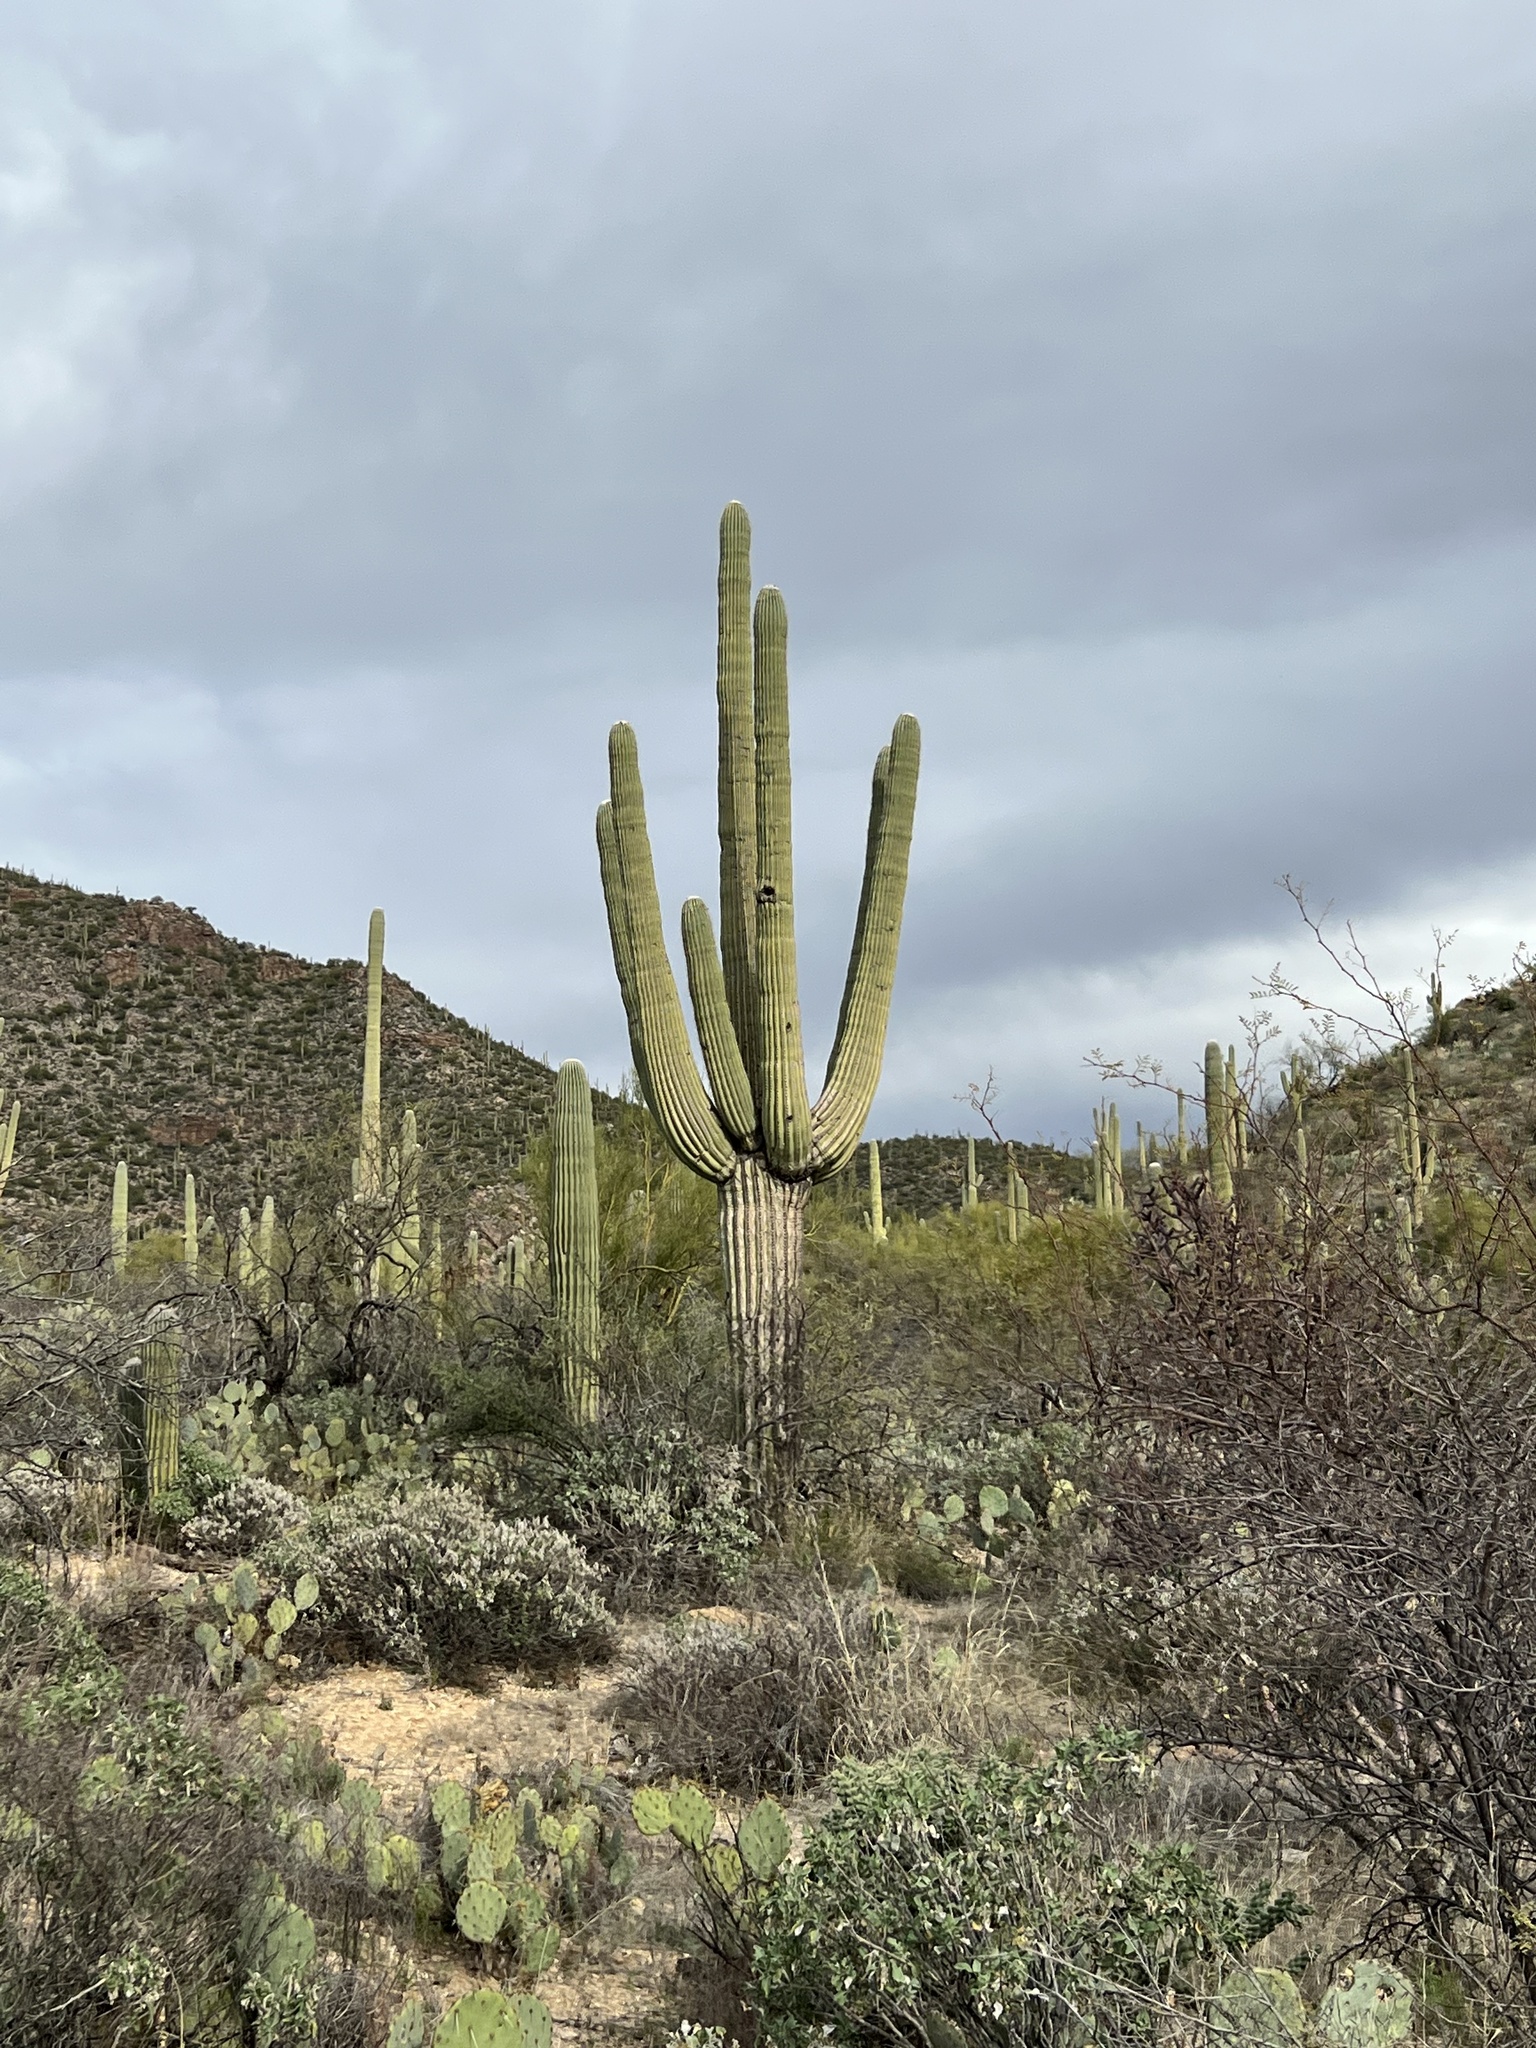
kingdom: Plantae
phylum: Tracheophyta
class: Magnoliopsida
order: Caryophyllales
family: Cactaceae
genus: Carnegiea
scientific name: Carnegiea gigantea
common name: Saguaro
